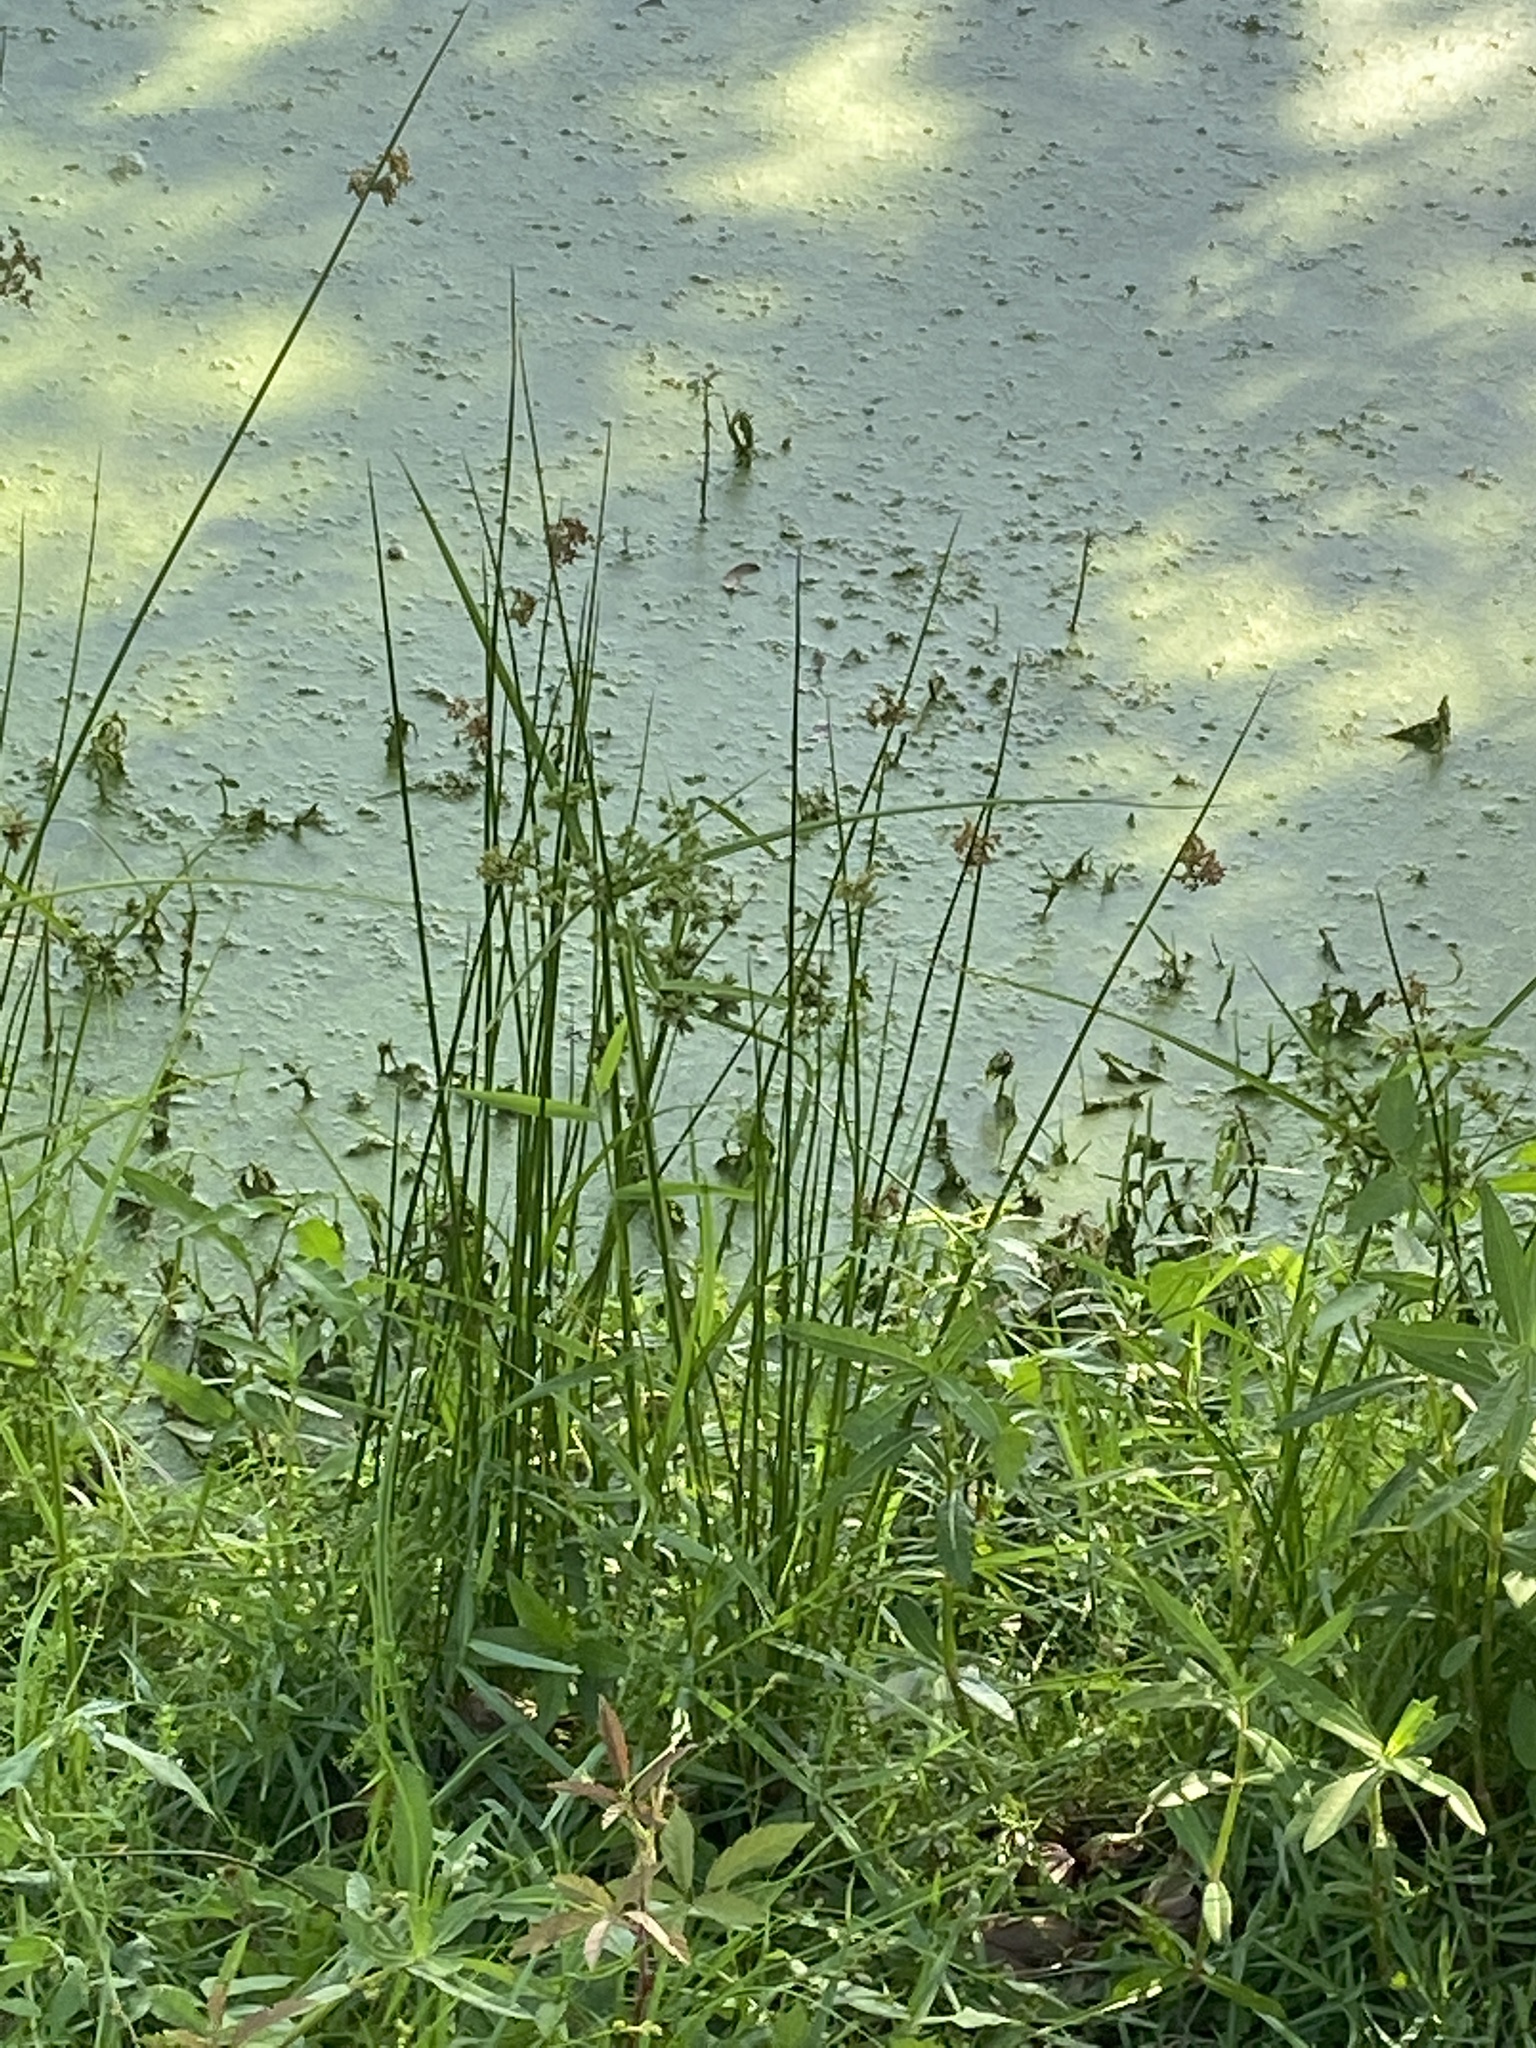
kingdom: Plantae
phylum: Tracheophyta
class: Liliopsida
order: Poales
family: Juncaceae
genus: Juncus
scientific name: Juncus effusus
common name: Soft rush
